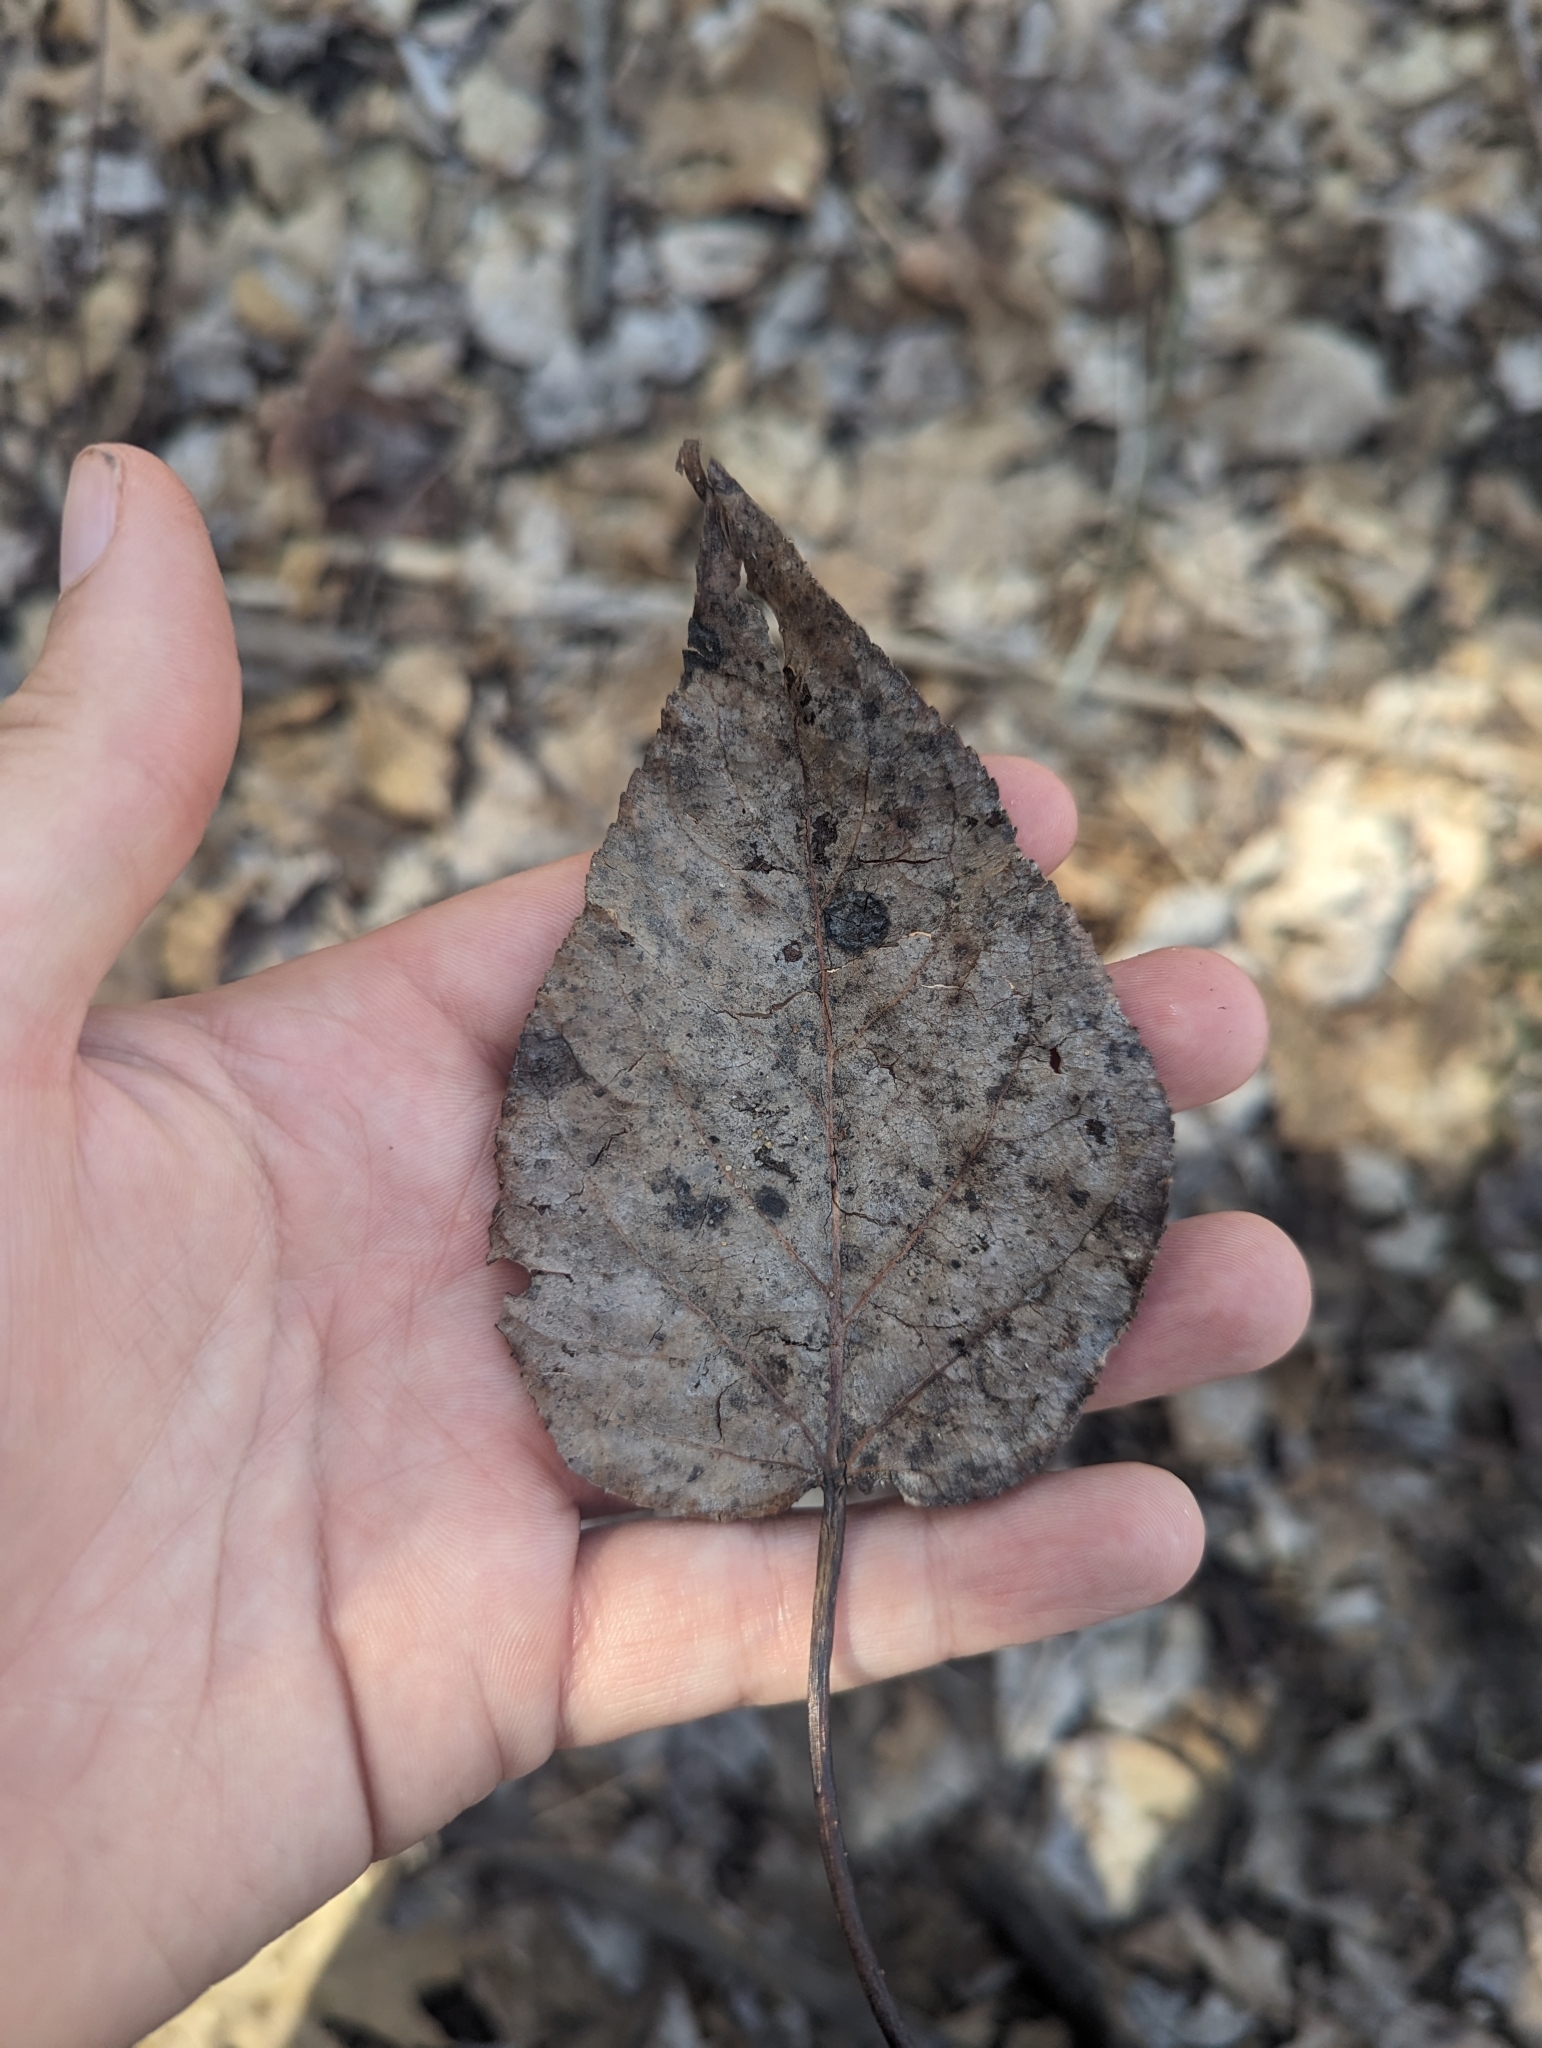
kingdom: Plantae
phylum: Tracheophyta
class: Magnoliopsida
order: Malpighiales
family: Salicaceae
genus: Populus
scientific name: Populus balsamifera
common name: Balsam poplar
